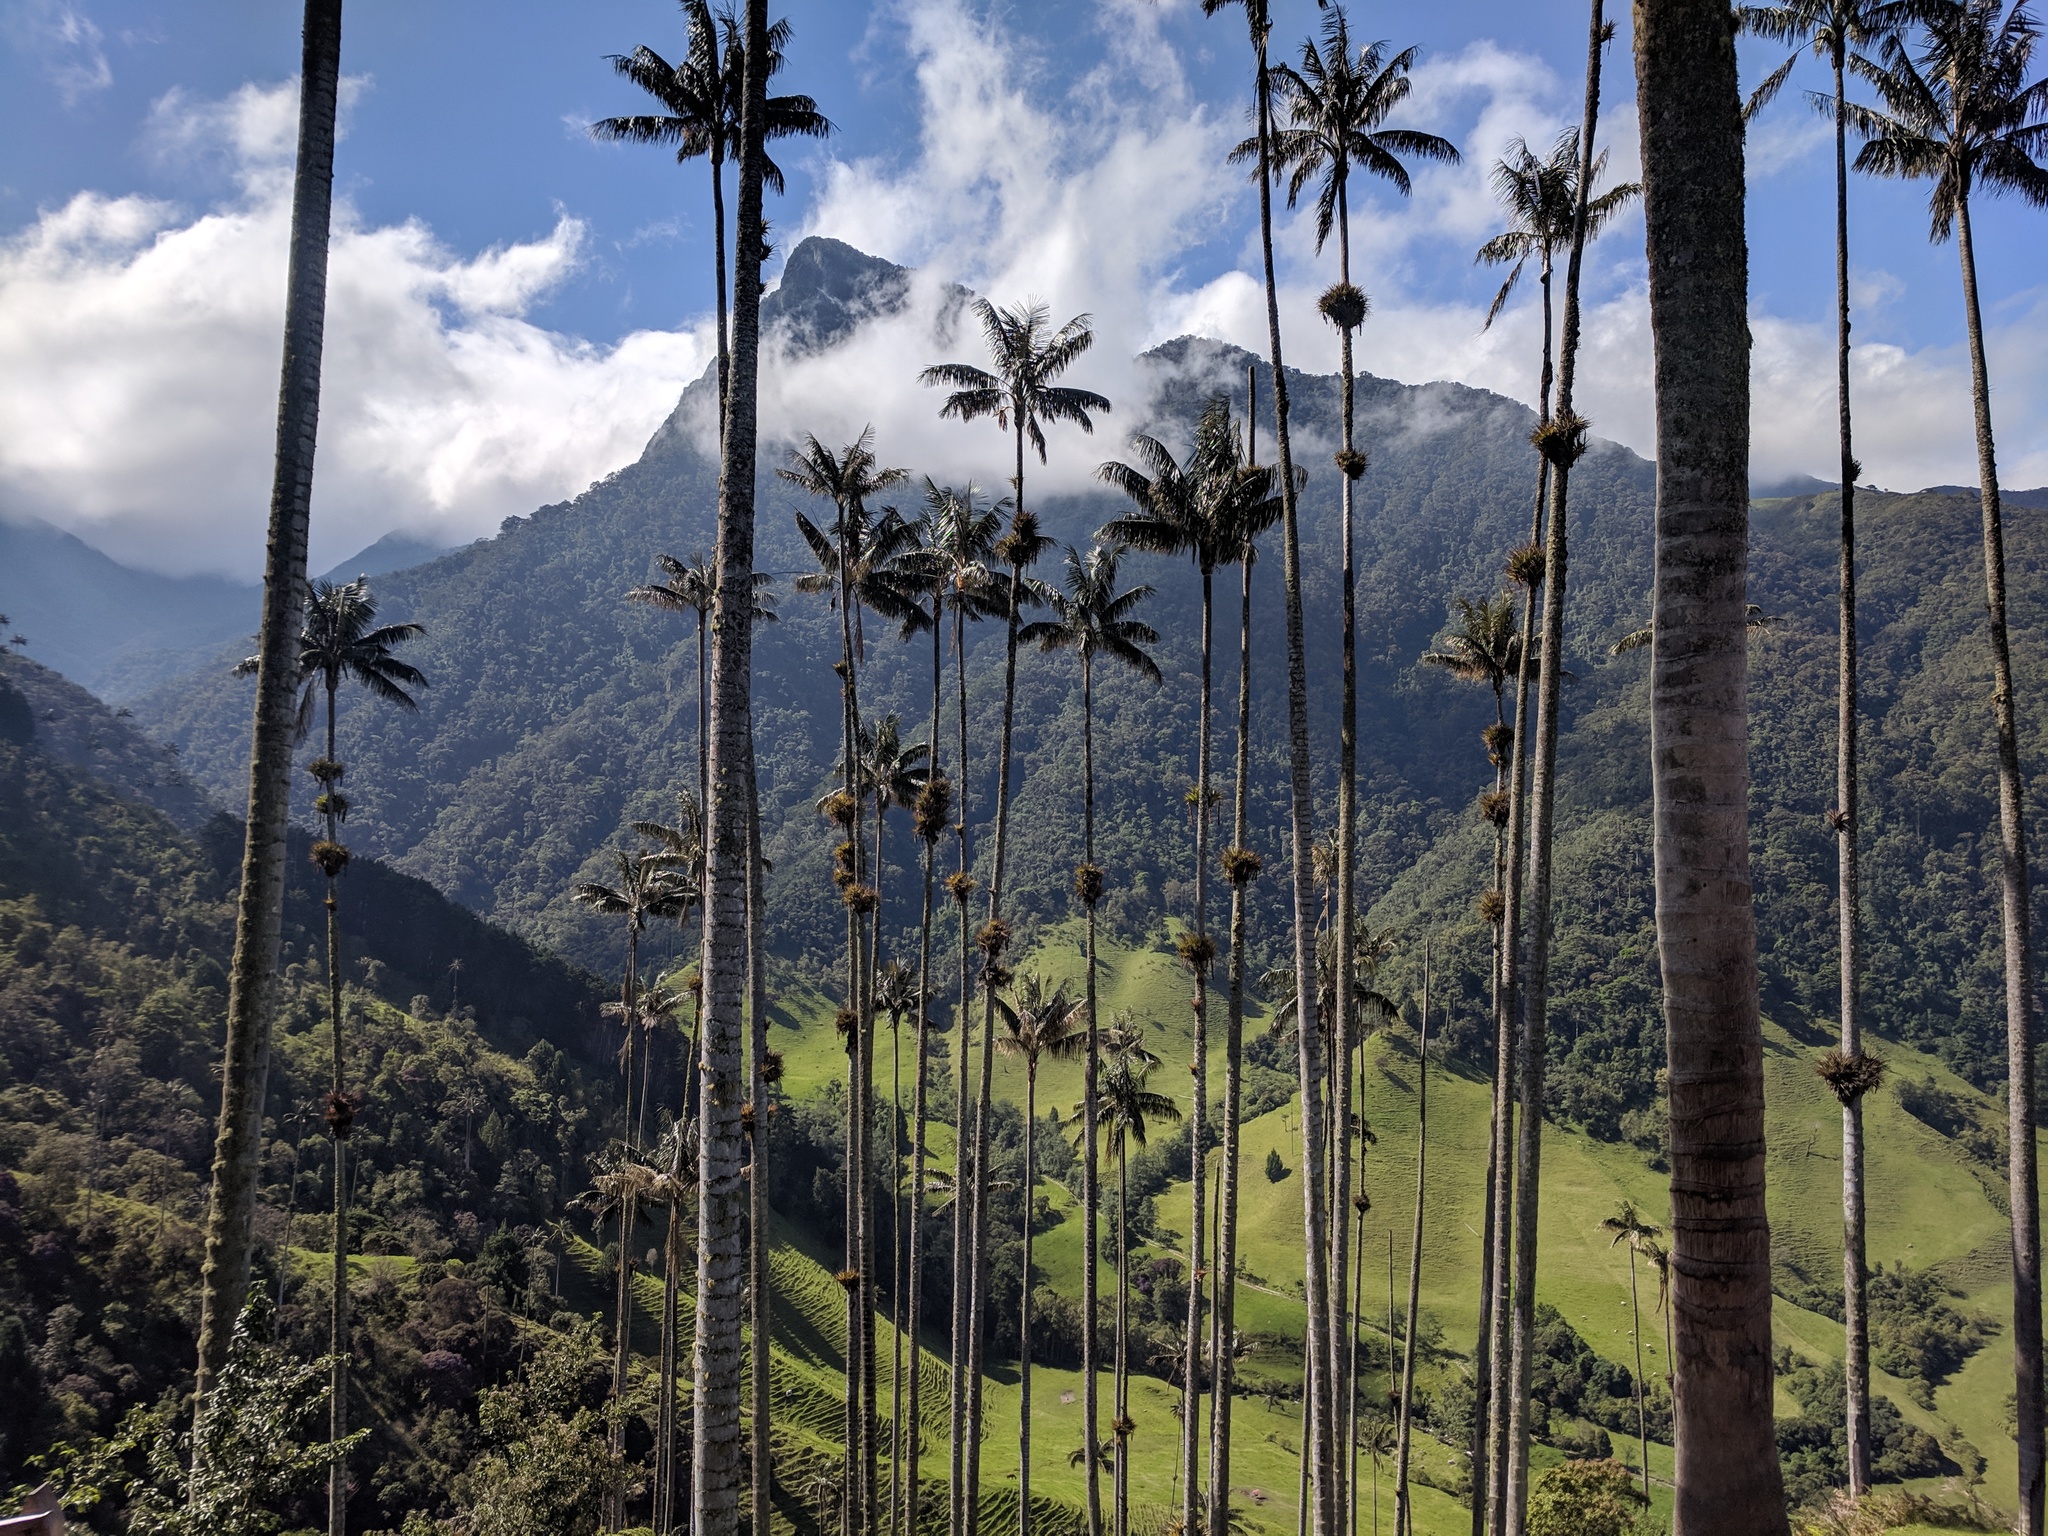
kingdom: Plantae
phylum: Tracheophyta
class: Liliopsida
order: Arecales
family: Arecaceae
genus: Ceroxylon
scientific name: Ceroxylon quindiuense
